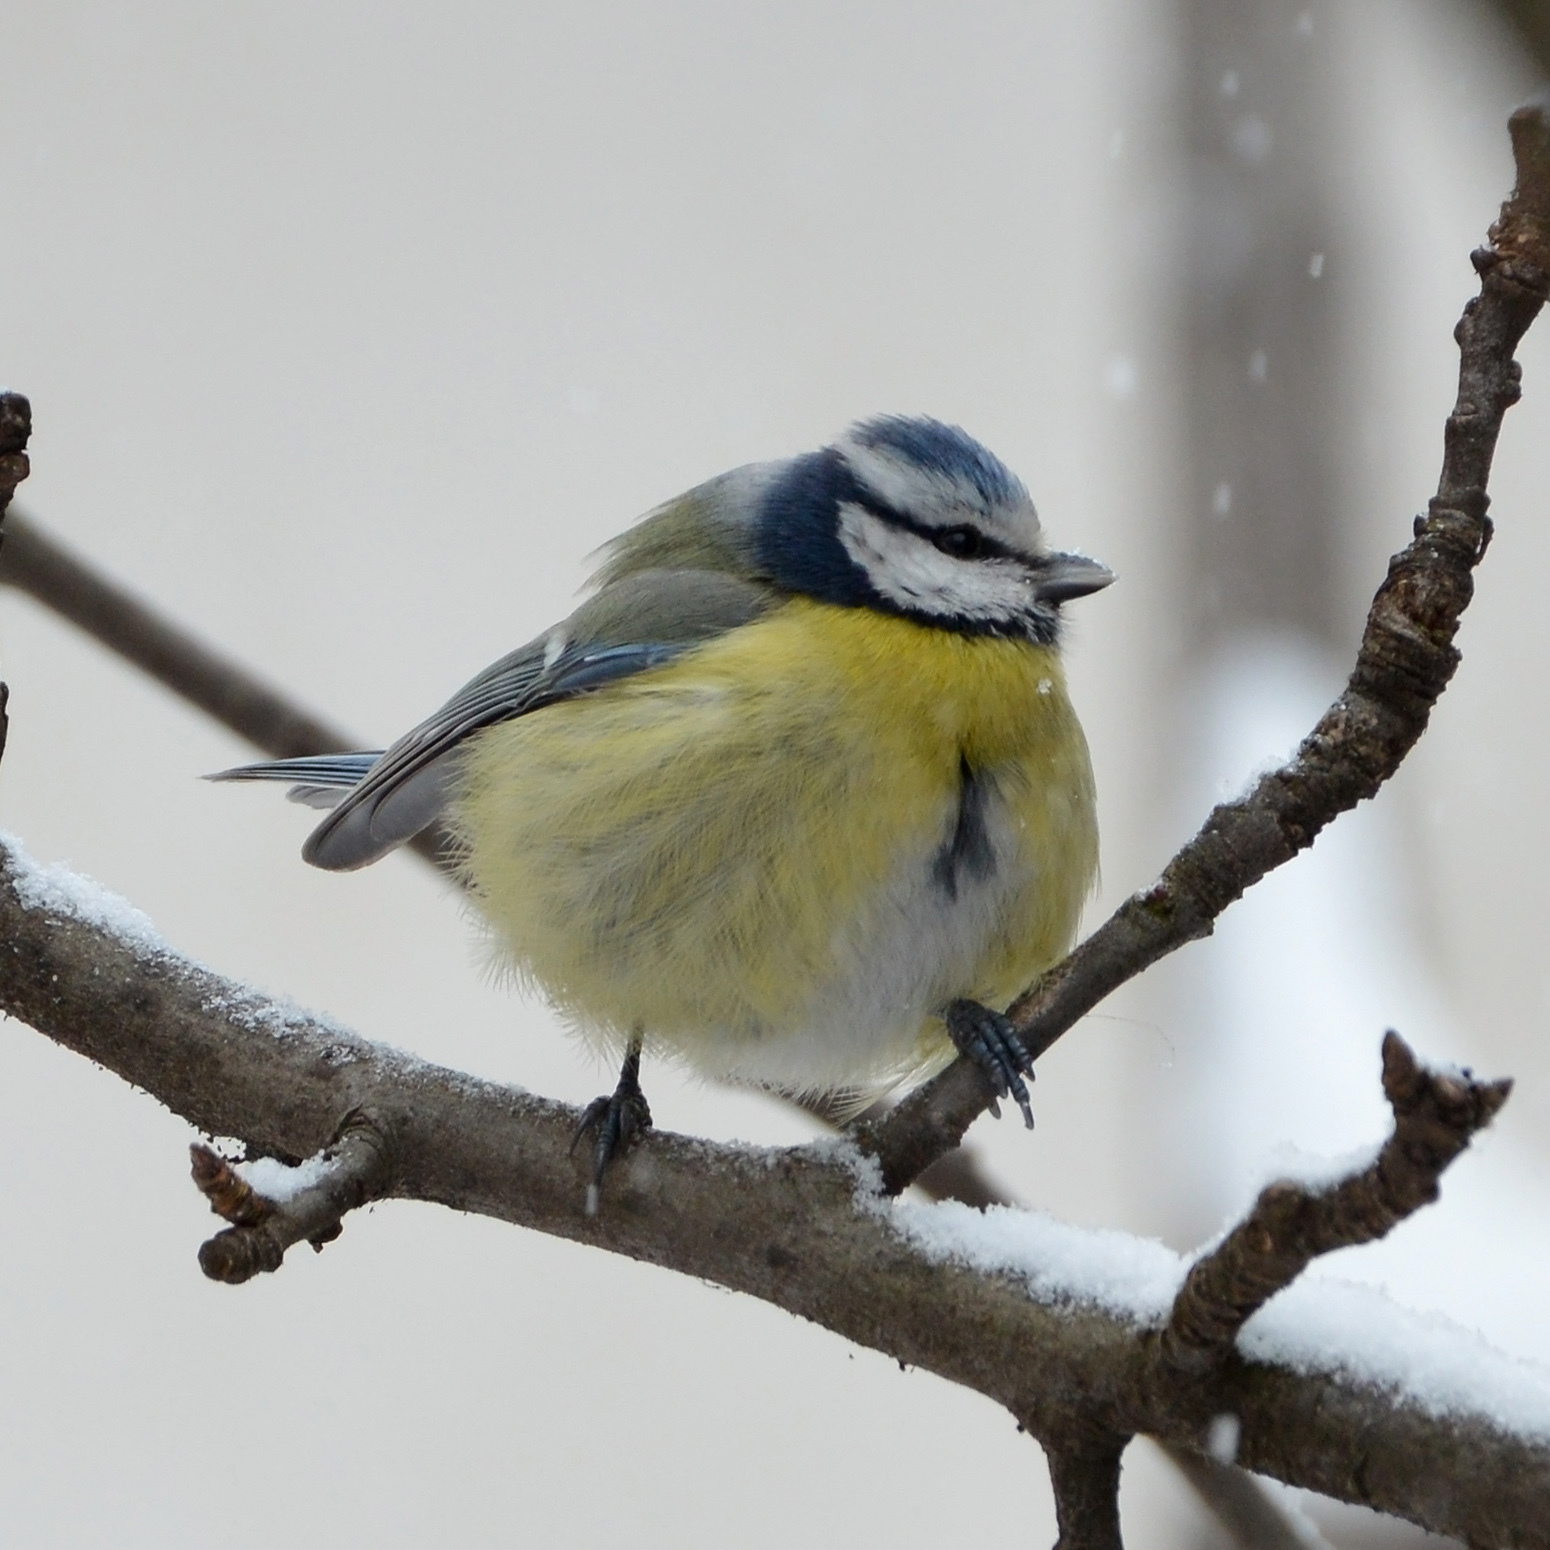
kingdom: Animalia
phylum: Chordata
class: Aves
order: Passeriformes
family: Paridae
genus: Cyanistes
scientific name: Cyanistes caeruleus
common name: Eurasian blue tit
